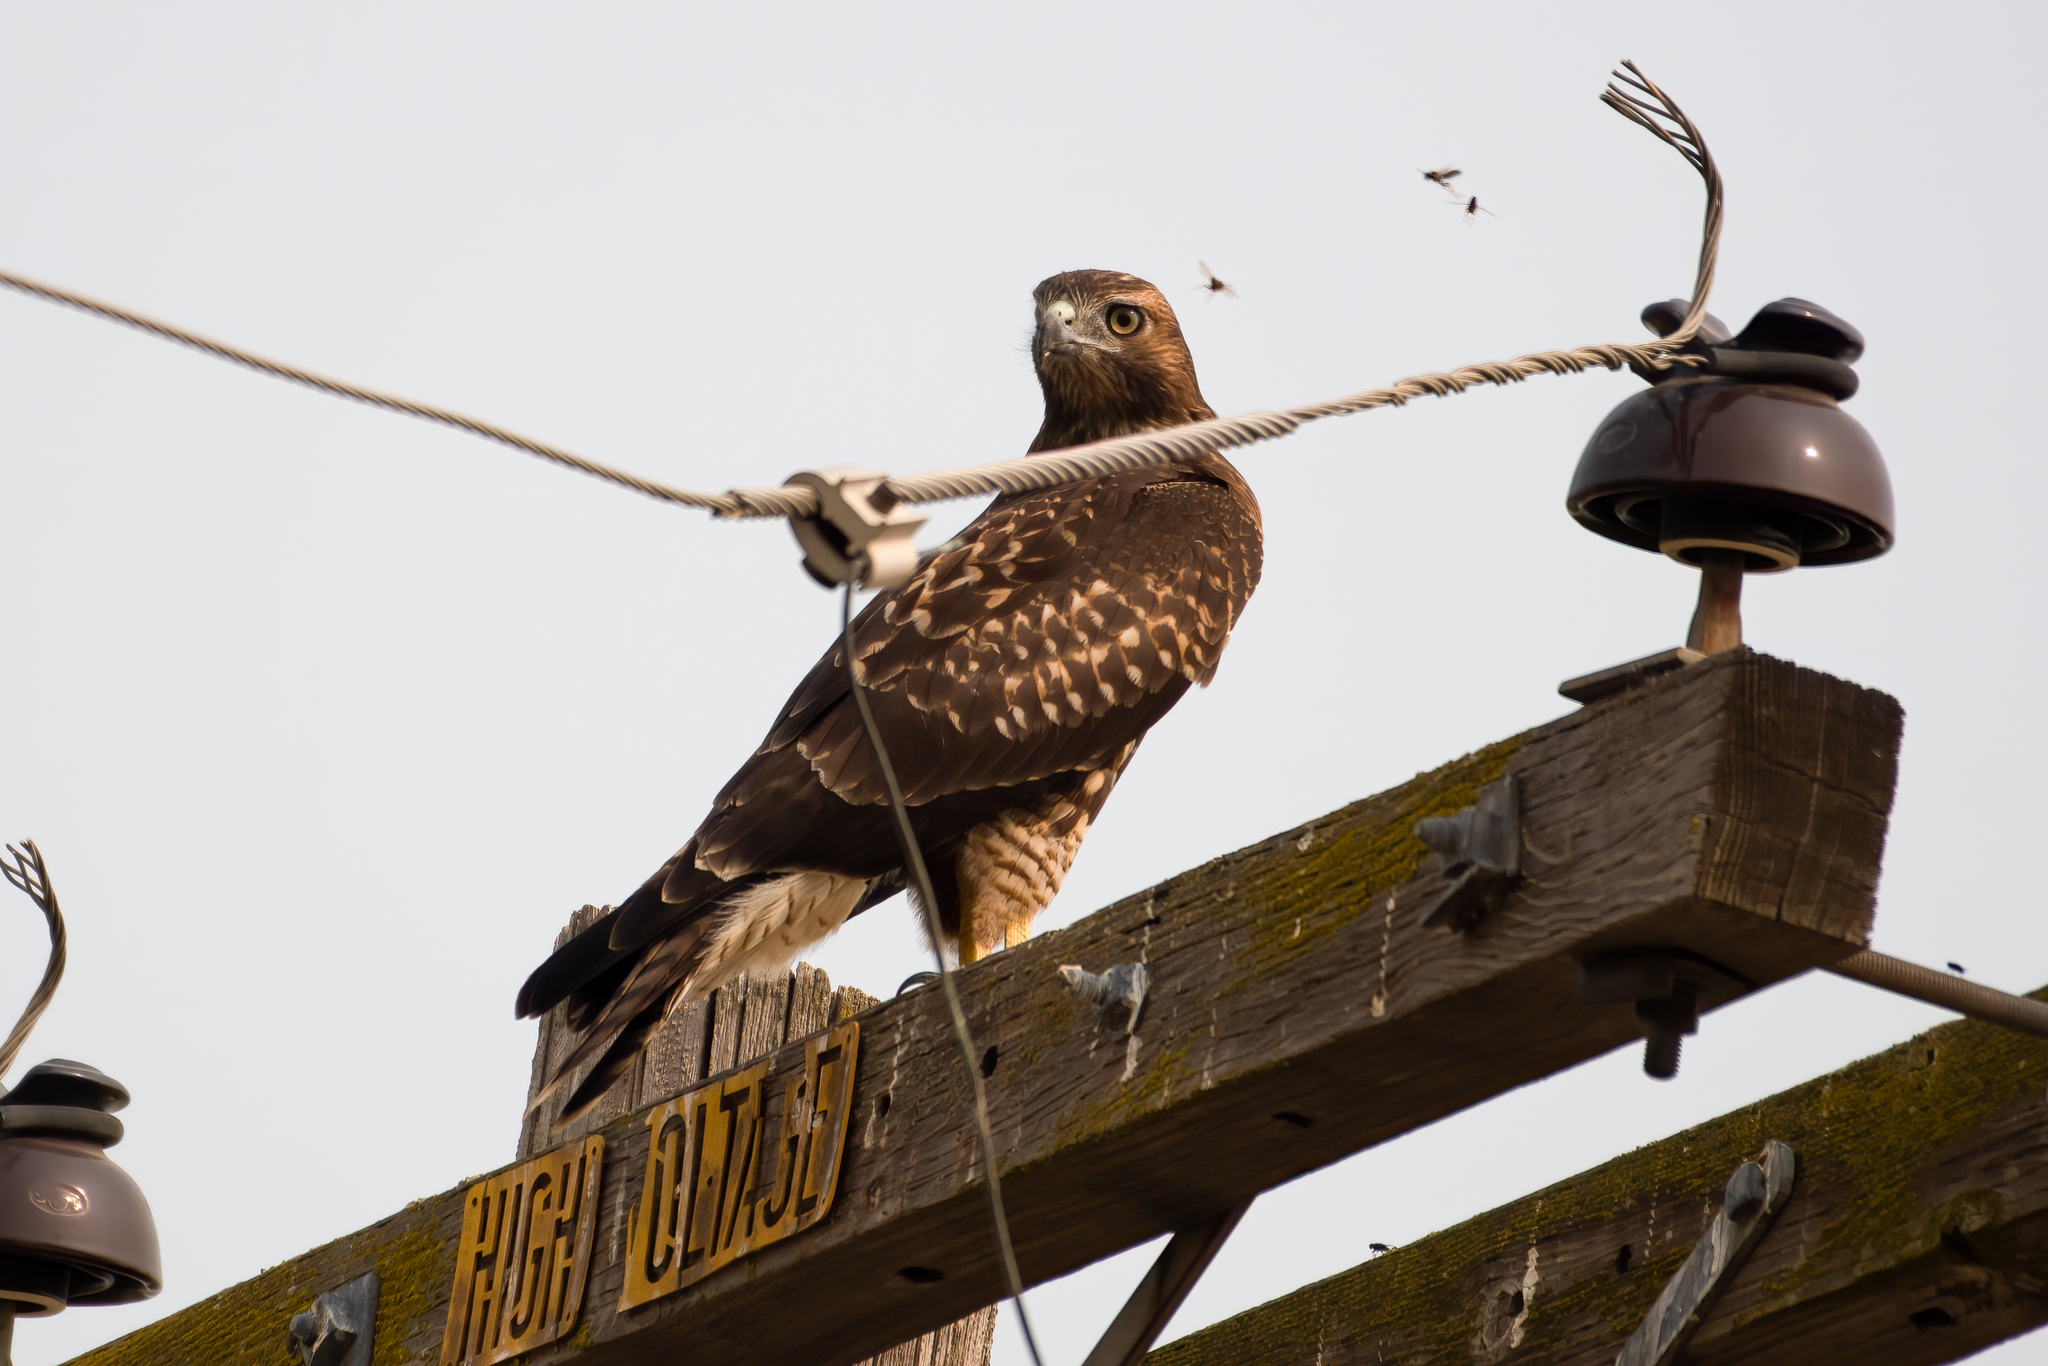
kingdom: Animalia
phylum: Chordata
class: Aves
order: Accipitriformes
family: Accipitridae
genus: Buteo
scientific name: Buteo jamaicensis
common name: Red-tailed hawk
